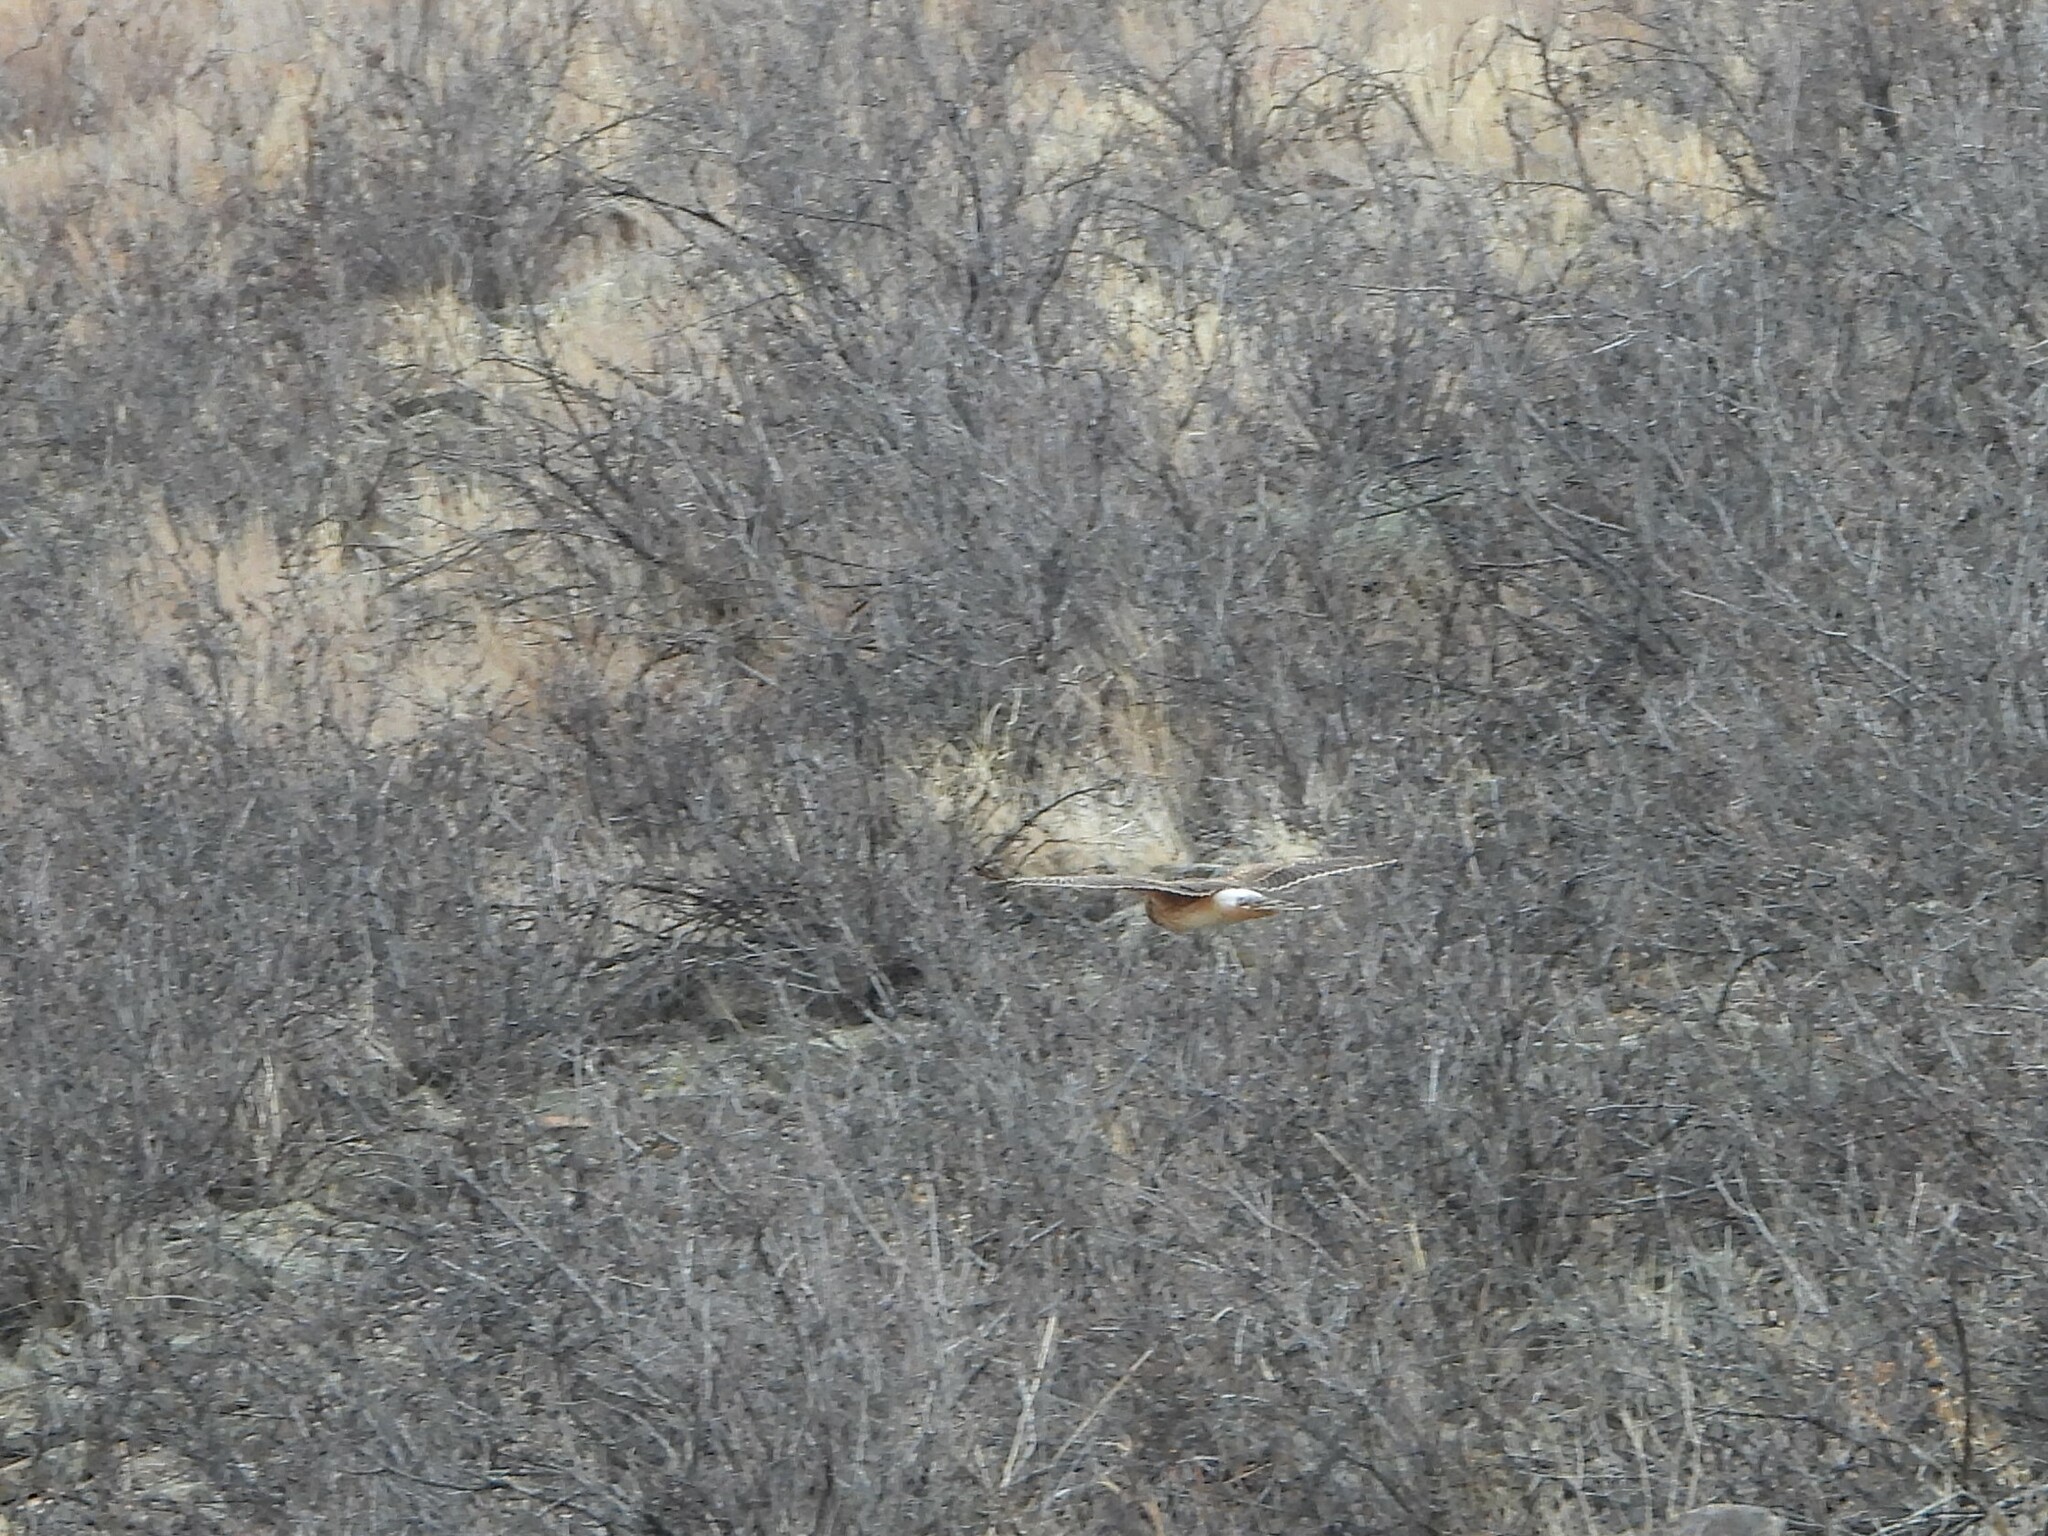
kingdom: Animalia
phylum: Chordata
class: Aves
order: Accipitriformes
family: Accipitridae
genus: Circus
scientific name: Circus cyaneus
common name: Hen harrier
